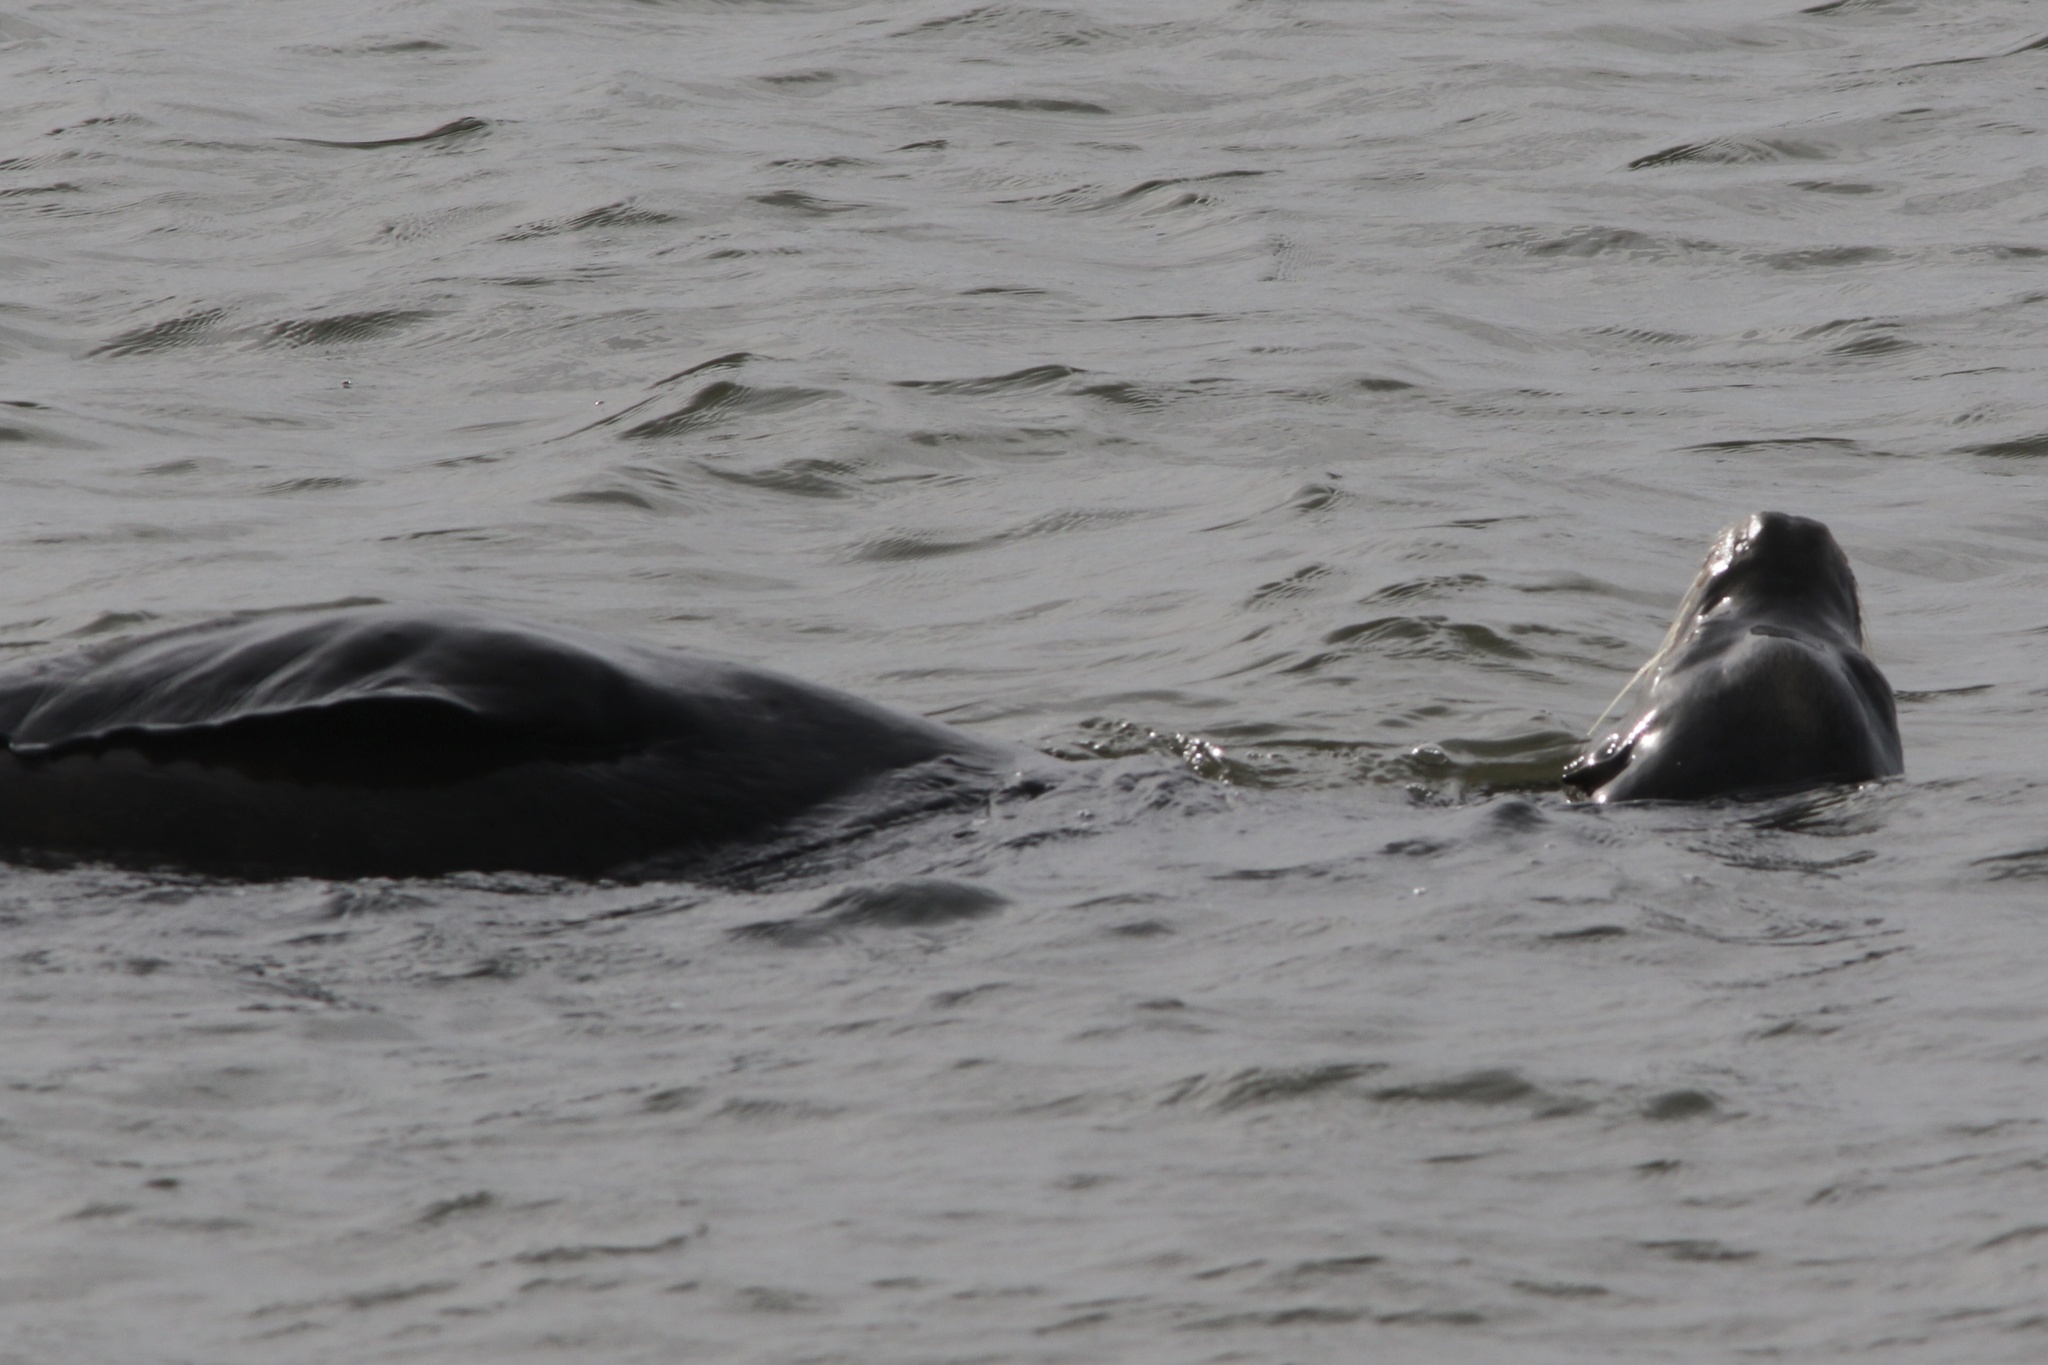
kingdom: Animalia
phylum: Chordata
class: Mammalia
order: Carnivora
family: Otariidae
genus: Zalophus
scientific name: Zalophus californianus
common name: California sea lion
